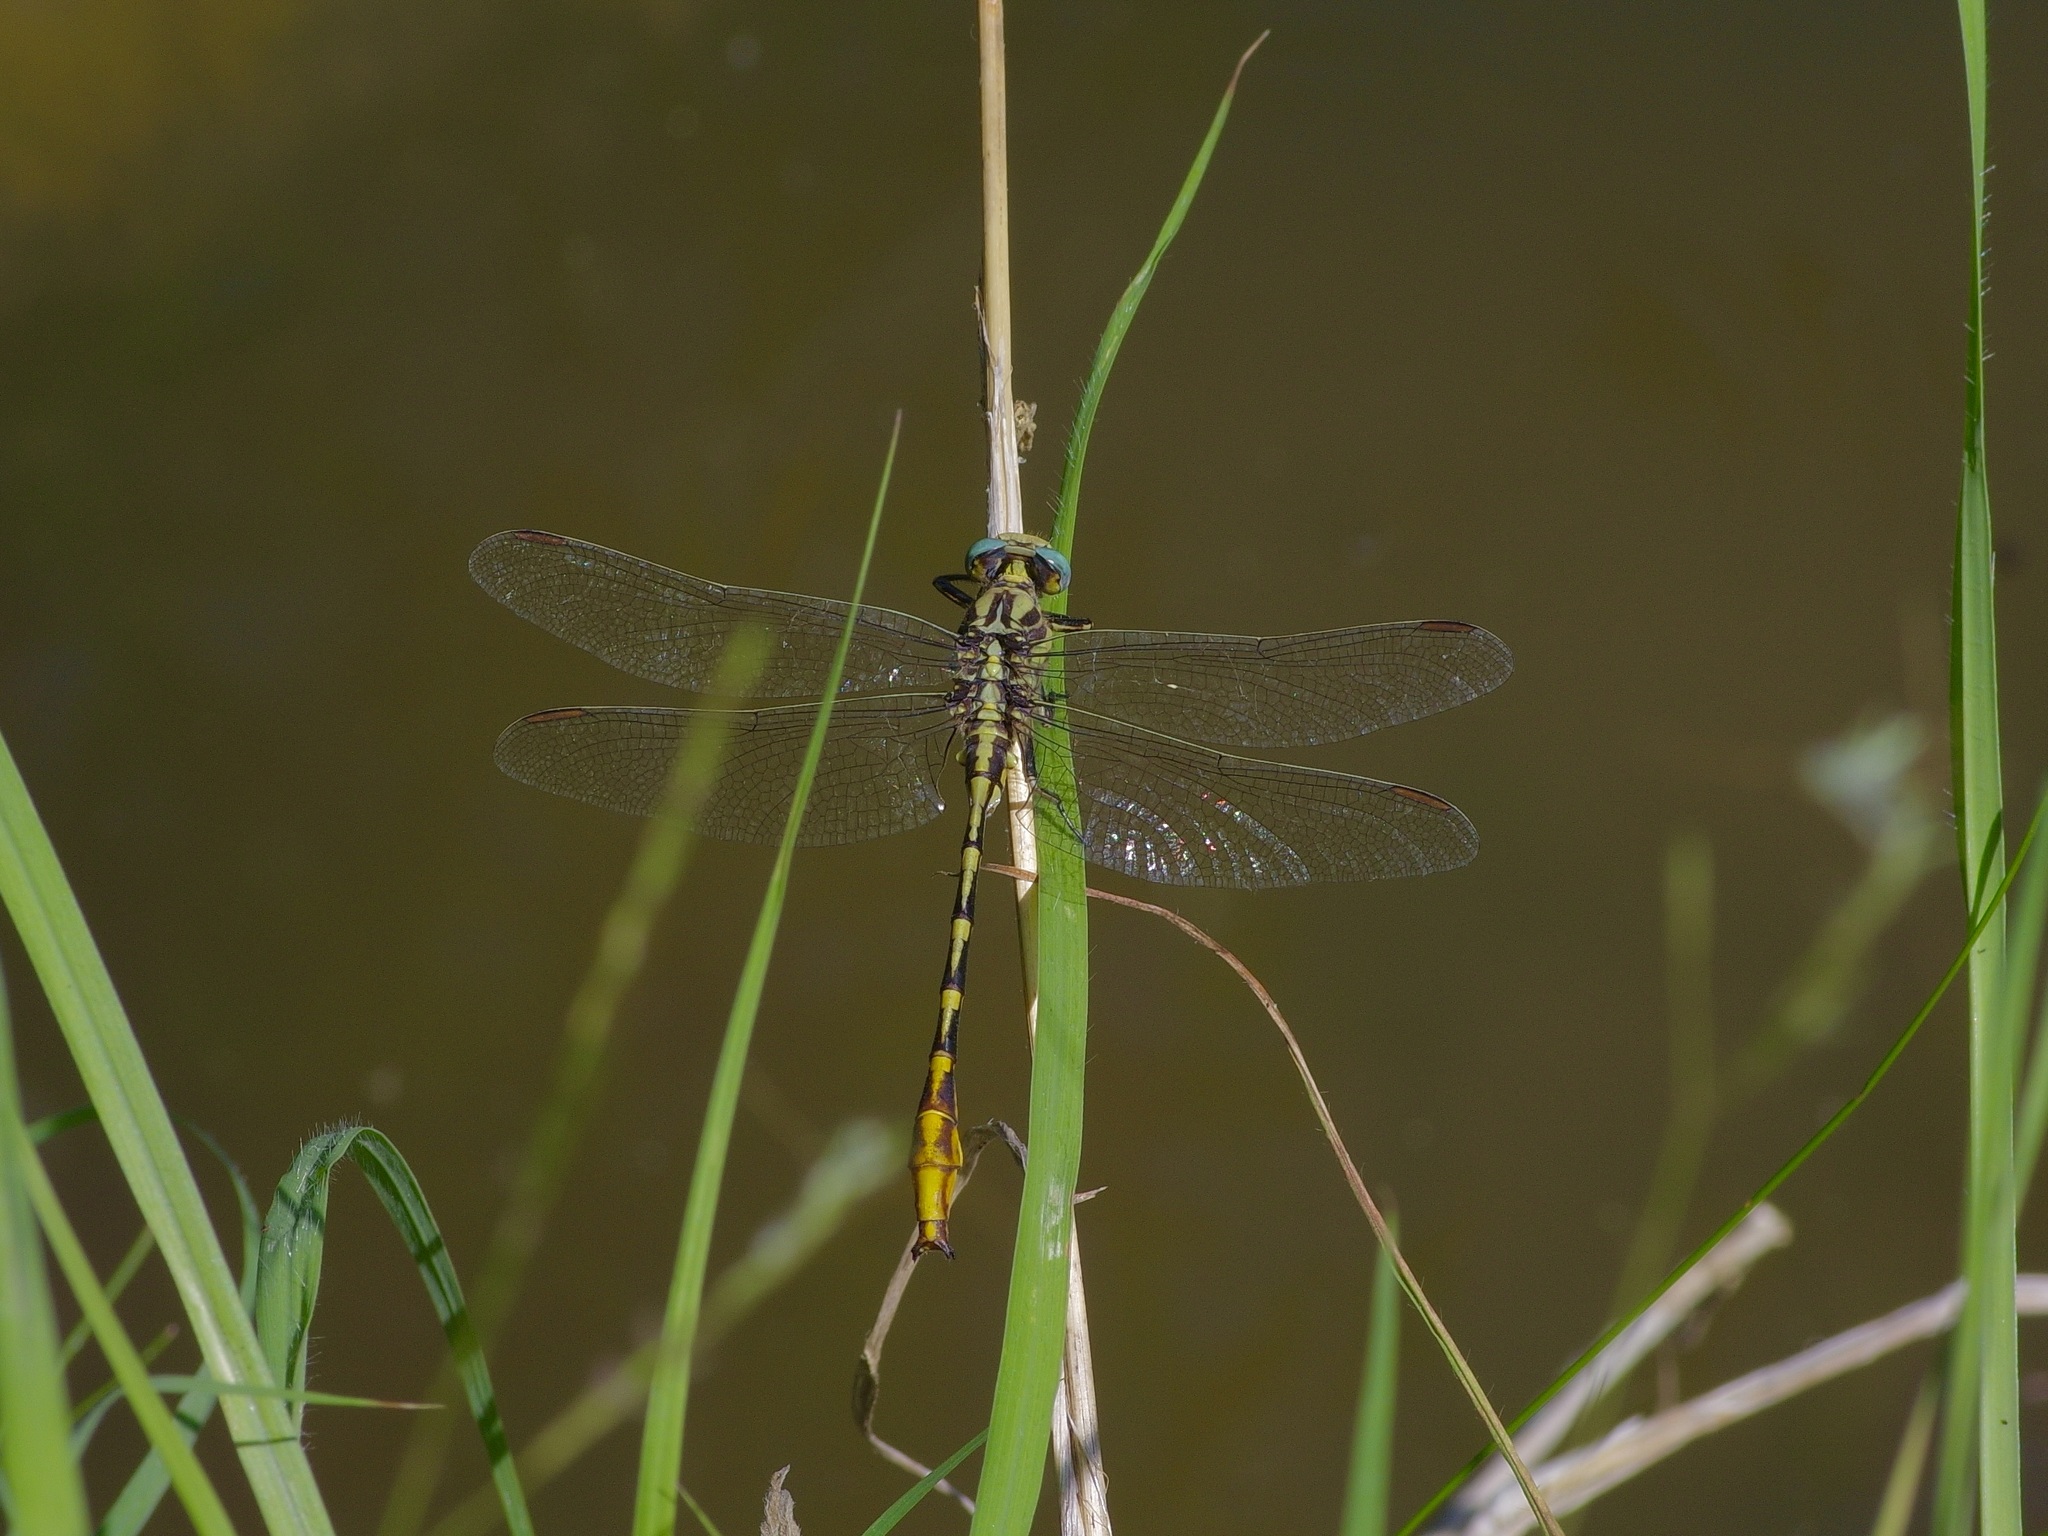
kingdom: Animalia
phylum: Arthropoda
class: Insecta
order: Odonata
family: Gomphidae
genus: Phanogomphus
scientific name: Phanogomphus militaris
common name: Sulphur-tipped clubtail
